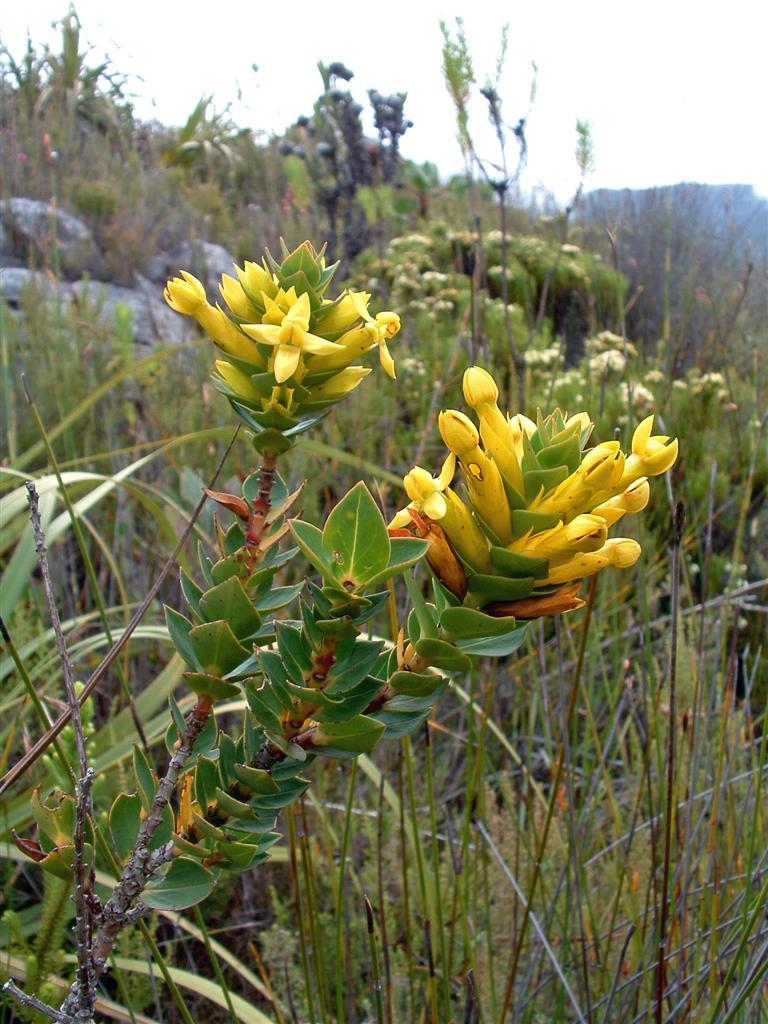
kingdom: Plantae
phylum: Tracheophyta
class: Magnoliopsida
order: Myrtales
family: Penaeaceae
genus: Endonema
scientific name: Endonema lateriflora
